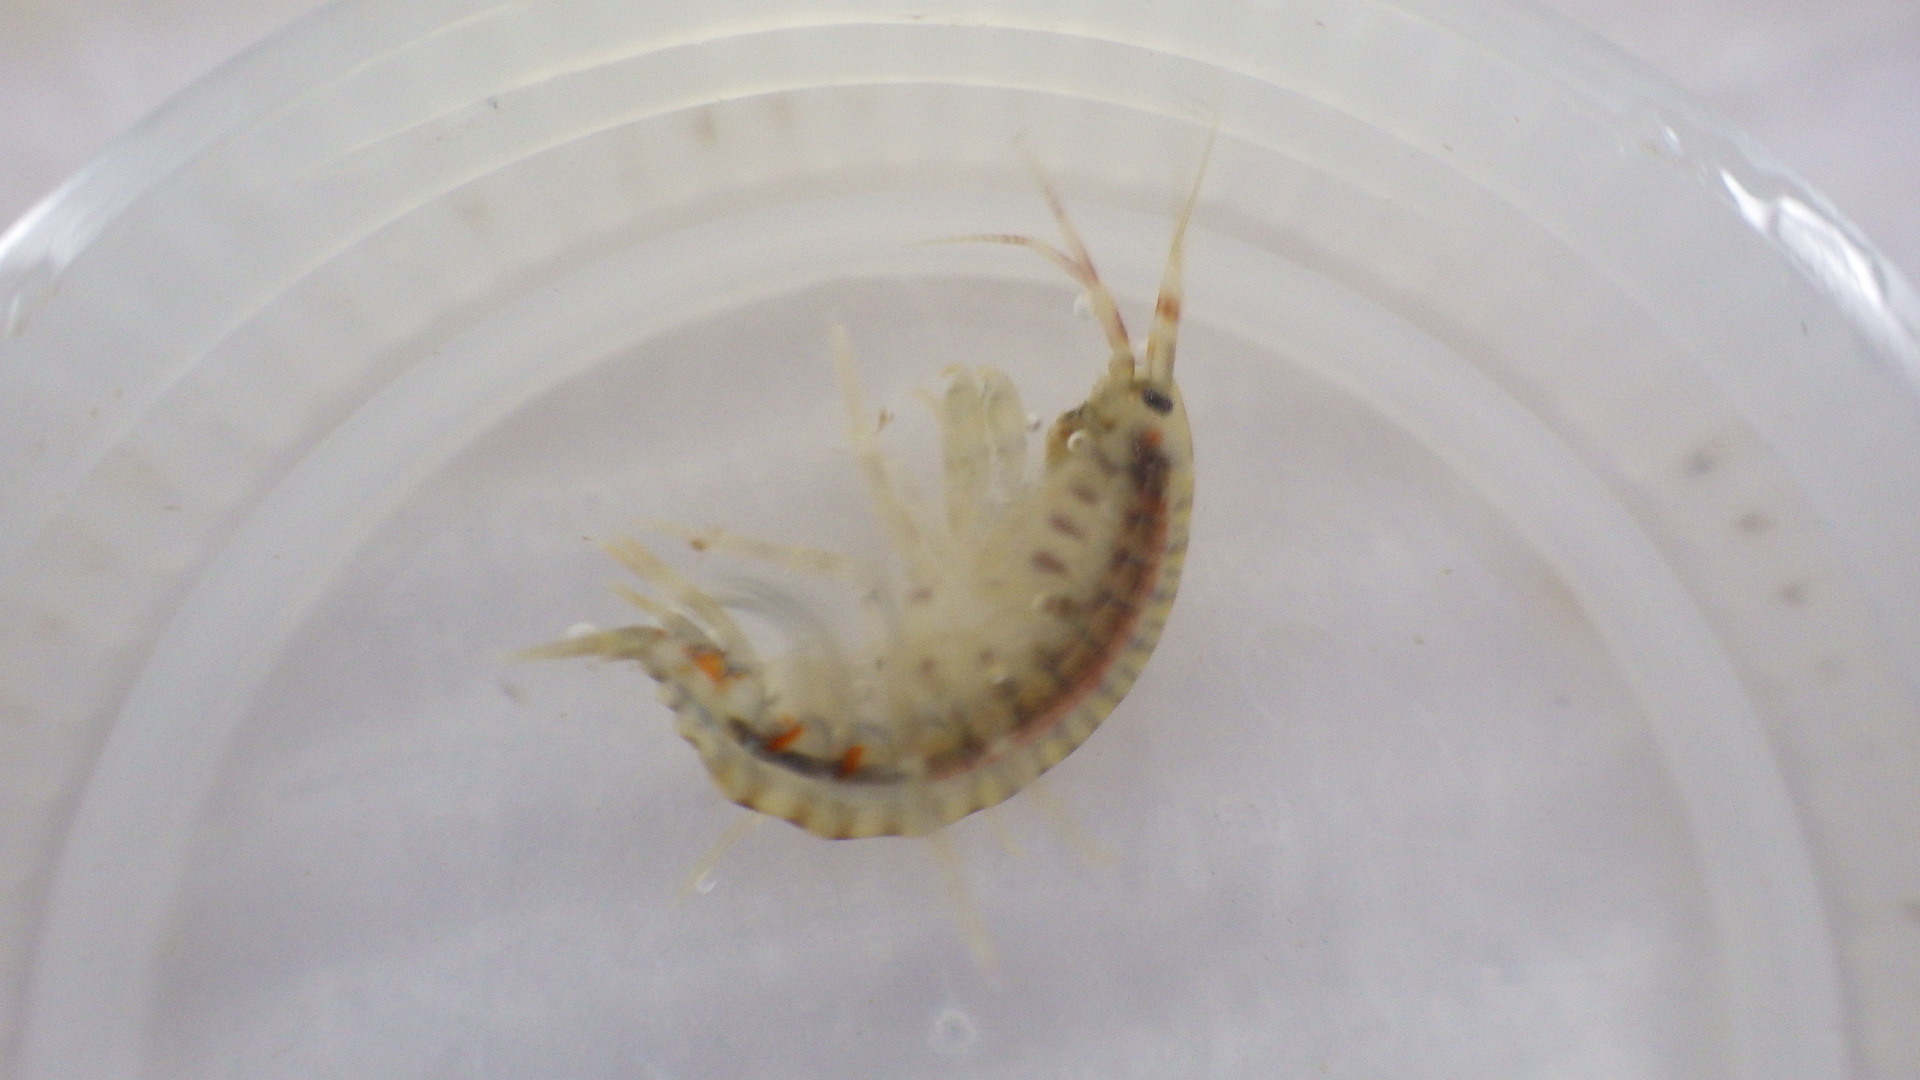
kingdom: Animalia
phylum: Arthropoda
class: Malacostraca
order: Amphipoda
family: Gammaridae
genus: Gammarus
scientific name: Gammarus fasciatus
